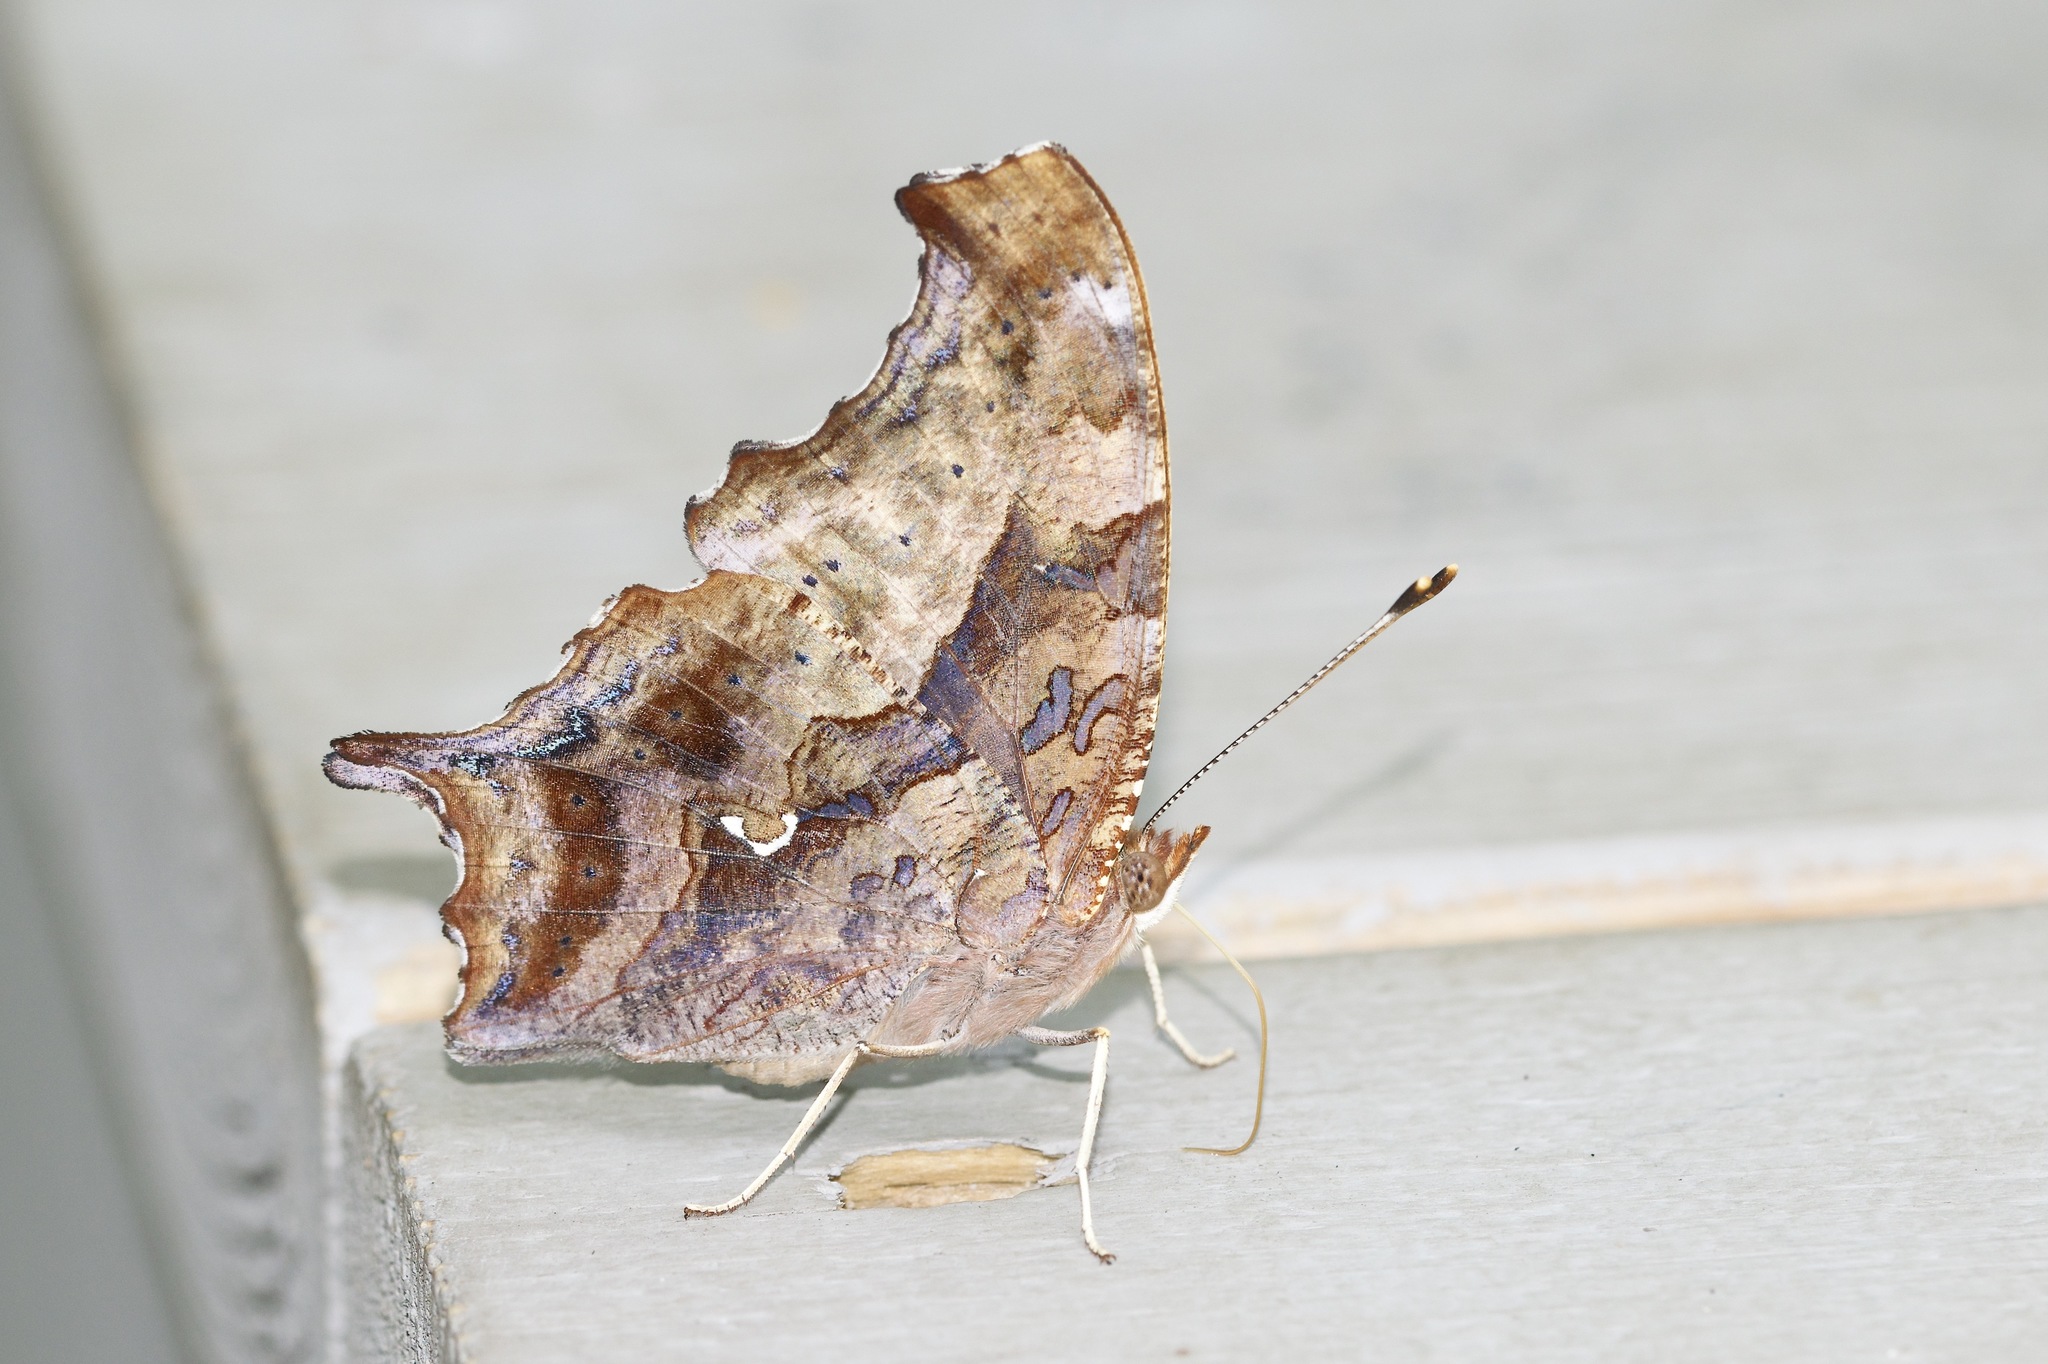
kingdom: Animalia
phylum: Arthropoda
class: Insecta
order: Lepidoptera
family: Nymphalidae
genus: Polygonia
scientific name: Polygonia interrogationis
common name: Question mark
